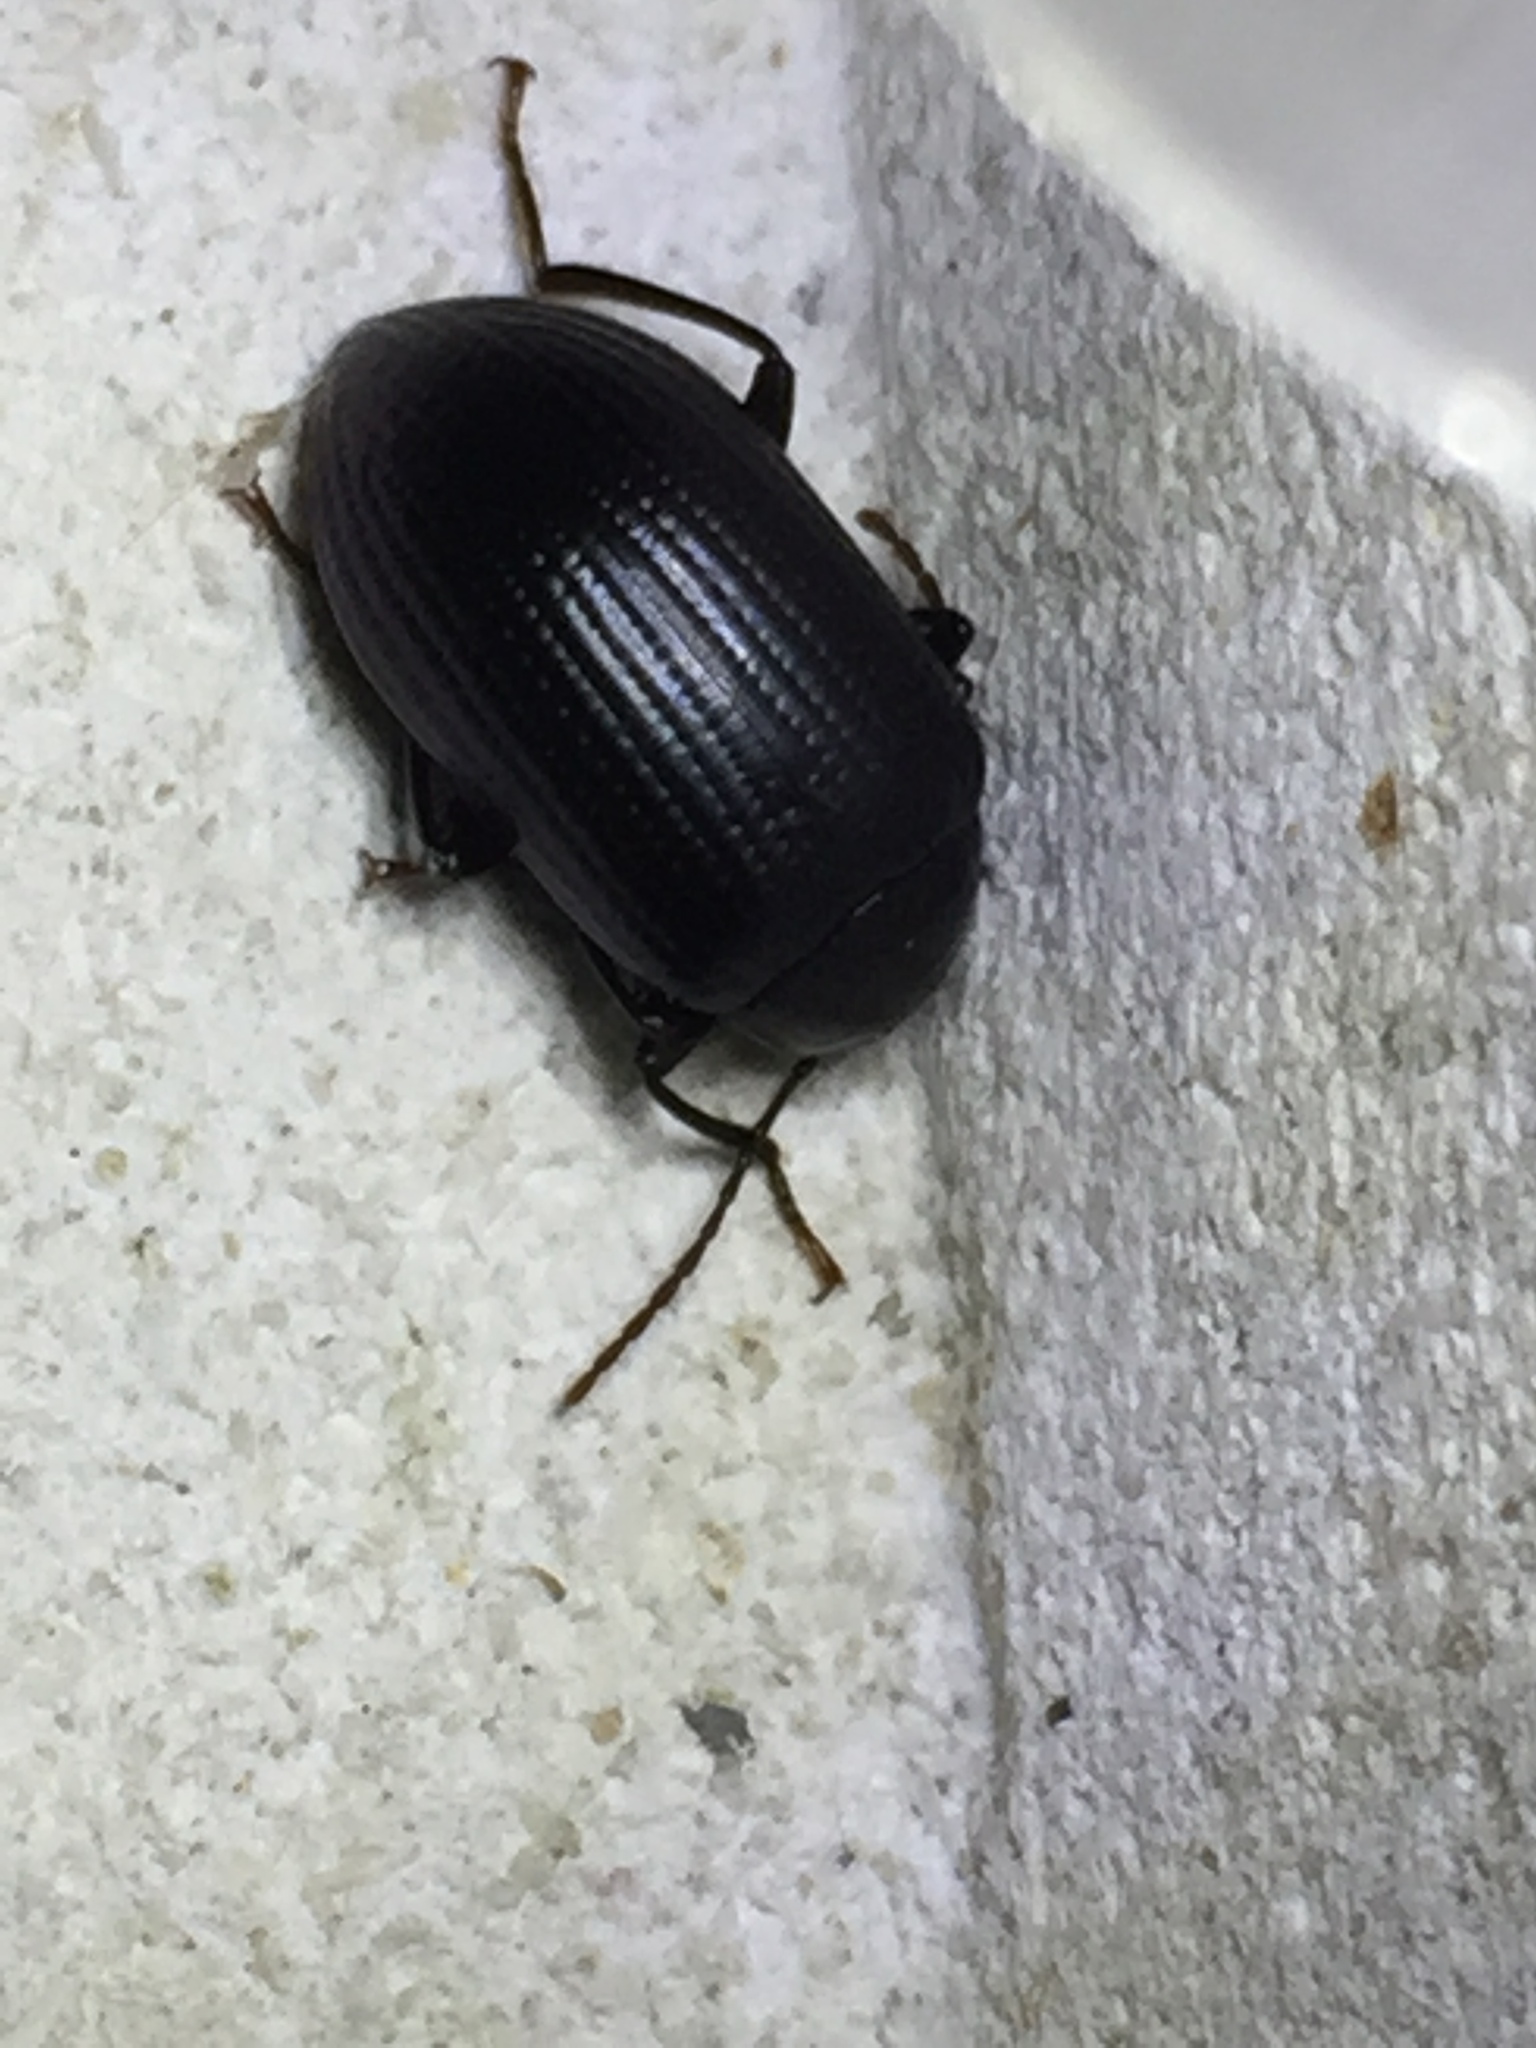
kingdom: Animalia
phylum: Arthropoda
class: Insecta
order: Coleoptera
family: Tenebrionidae
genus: Amarygmus
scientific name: Amarygmus
